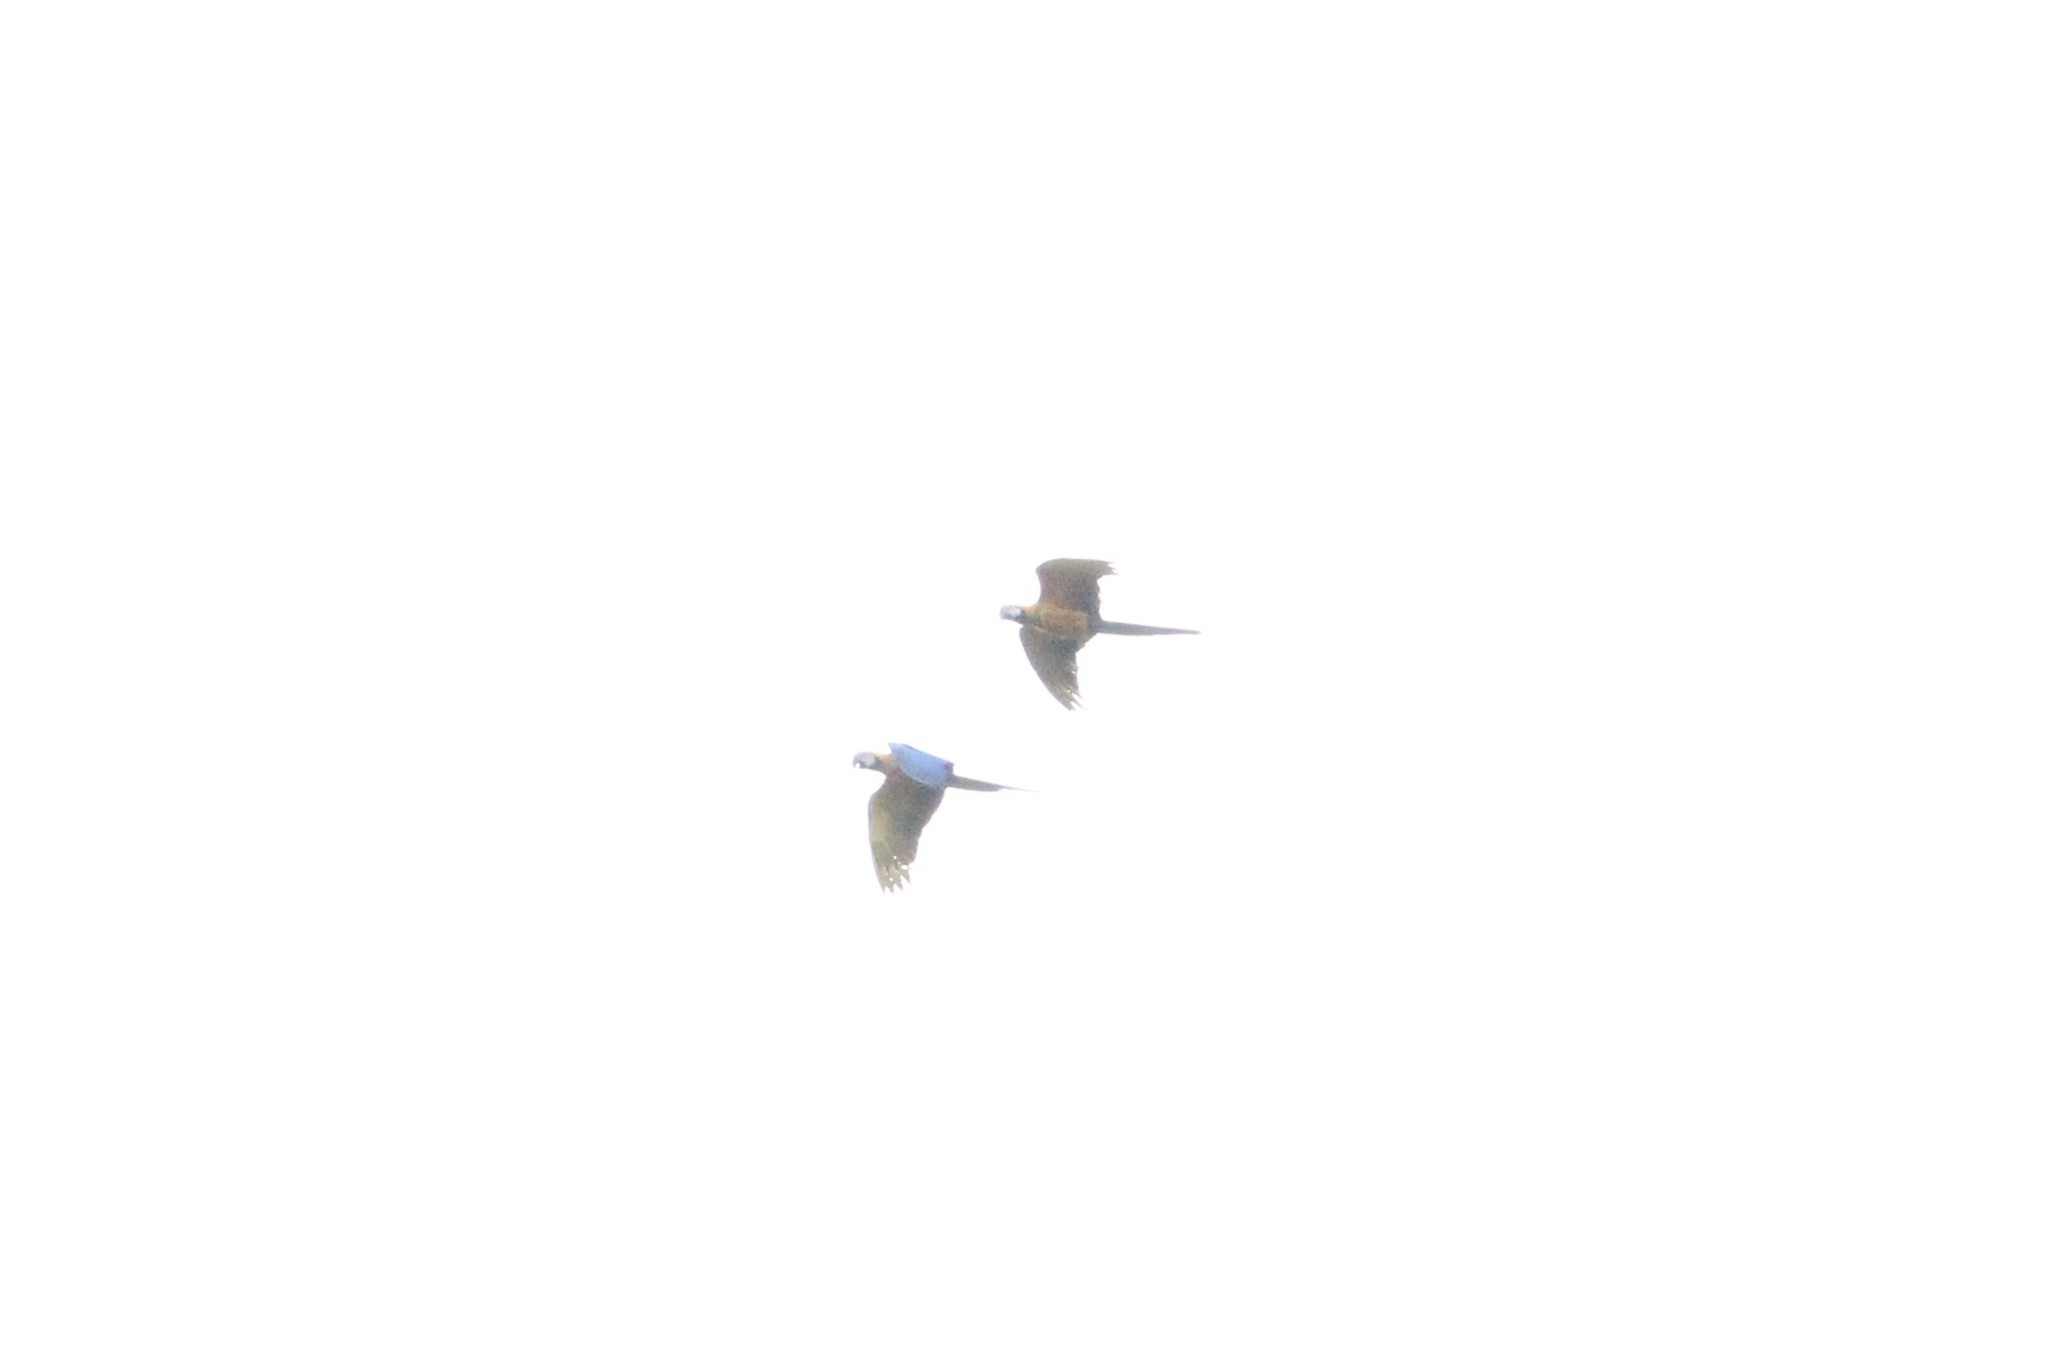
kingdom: Animalia
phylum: Chordata
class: Aves
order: Psittaciformes
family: Psittacidae
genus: Ara
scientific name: Ara ararauna
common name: Blue-and-yellow macaw
